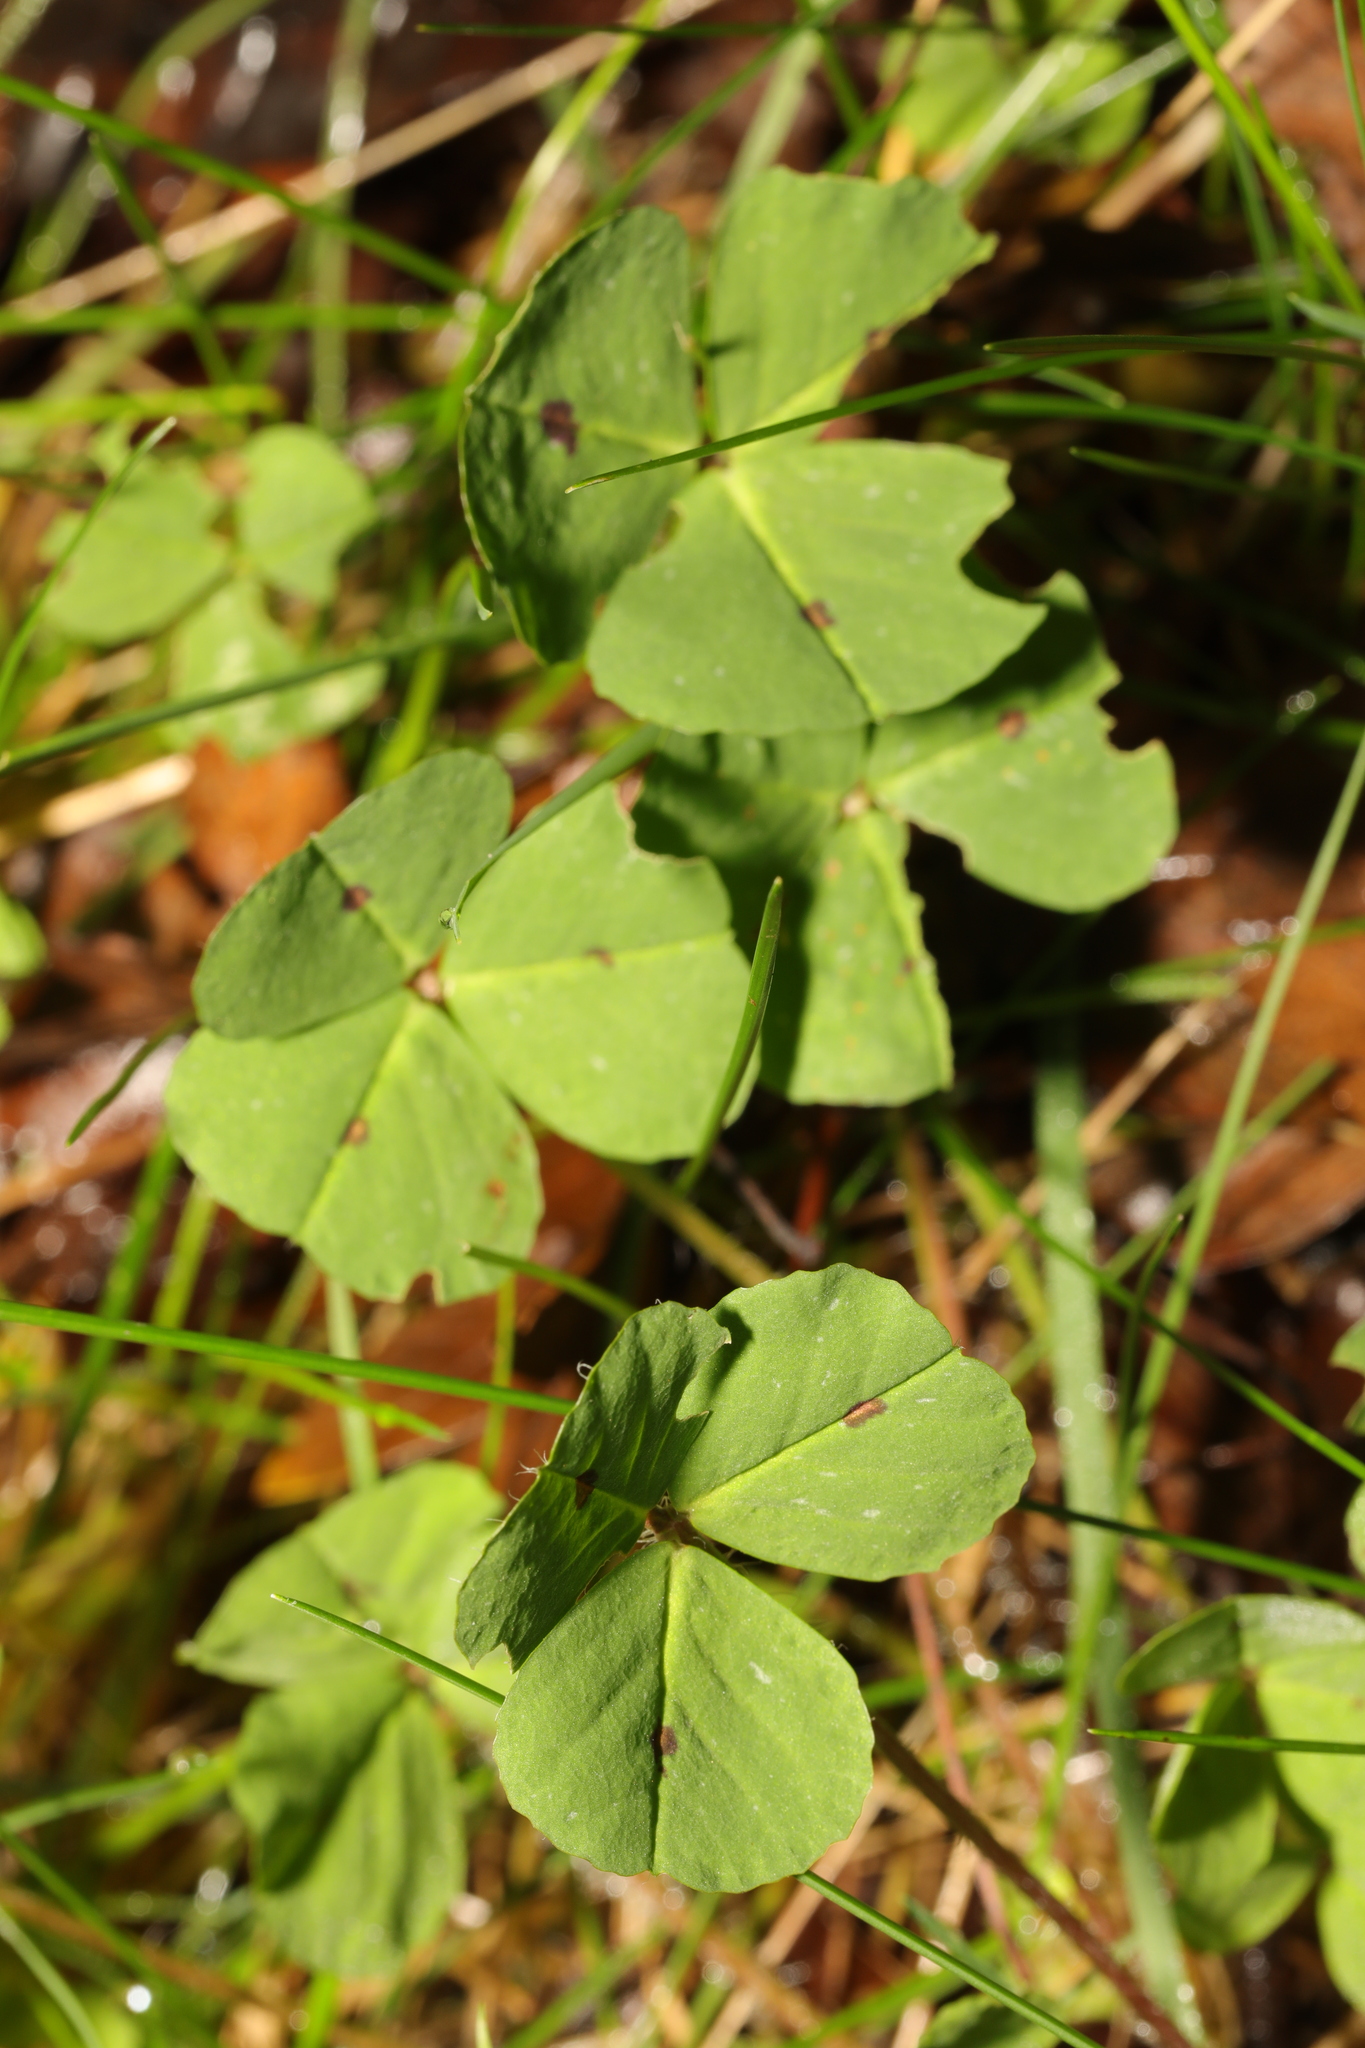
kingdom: Plantae
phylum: Tracheophyta
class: Magnoliopsida
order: Fabales
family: Fabaceae
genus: Medicago
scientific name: Medicago arabica
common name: Spotted medick
